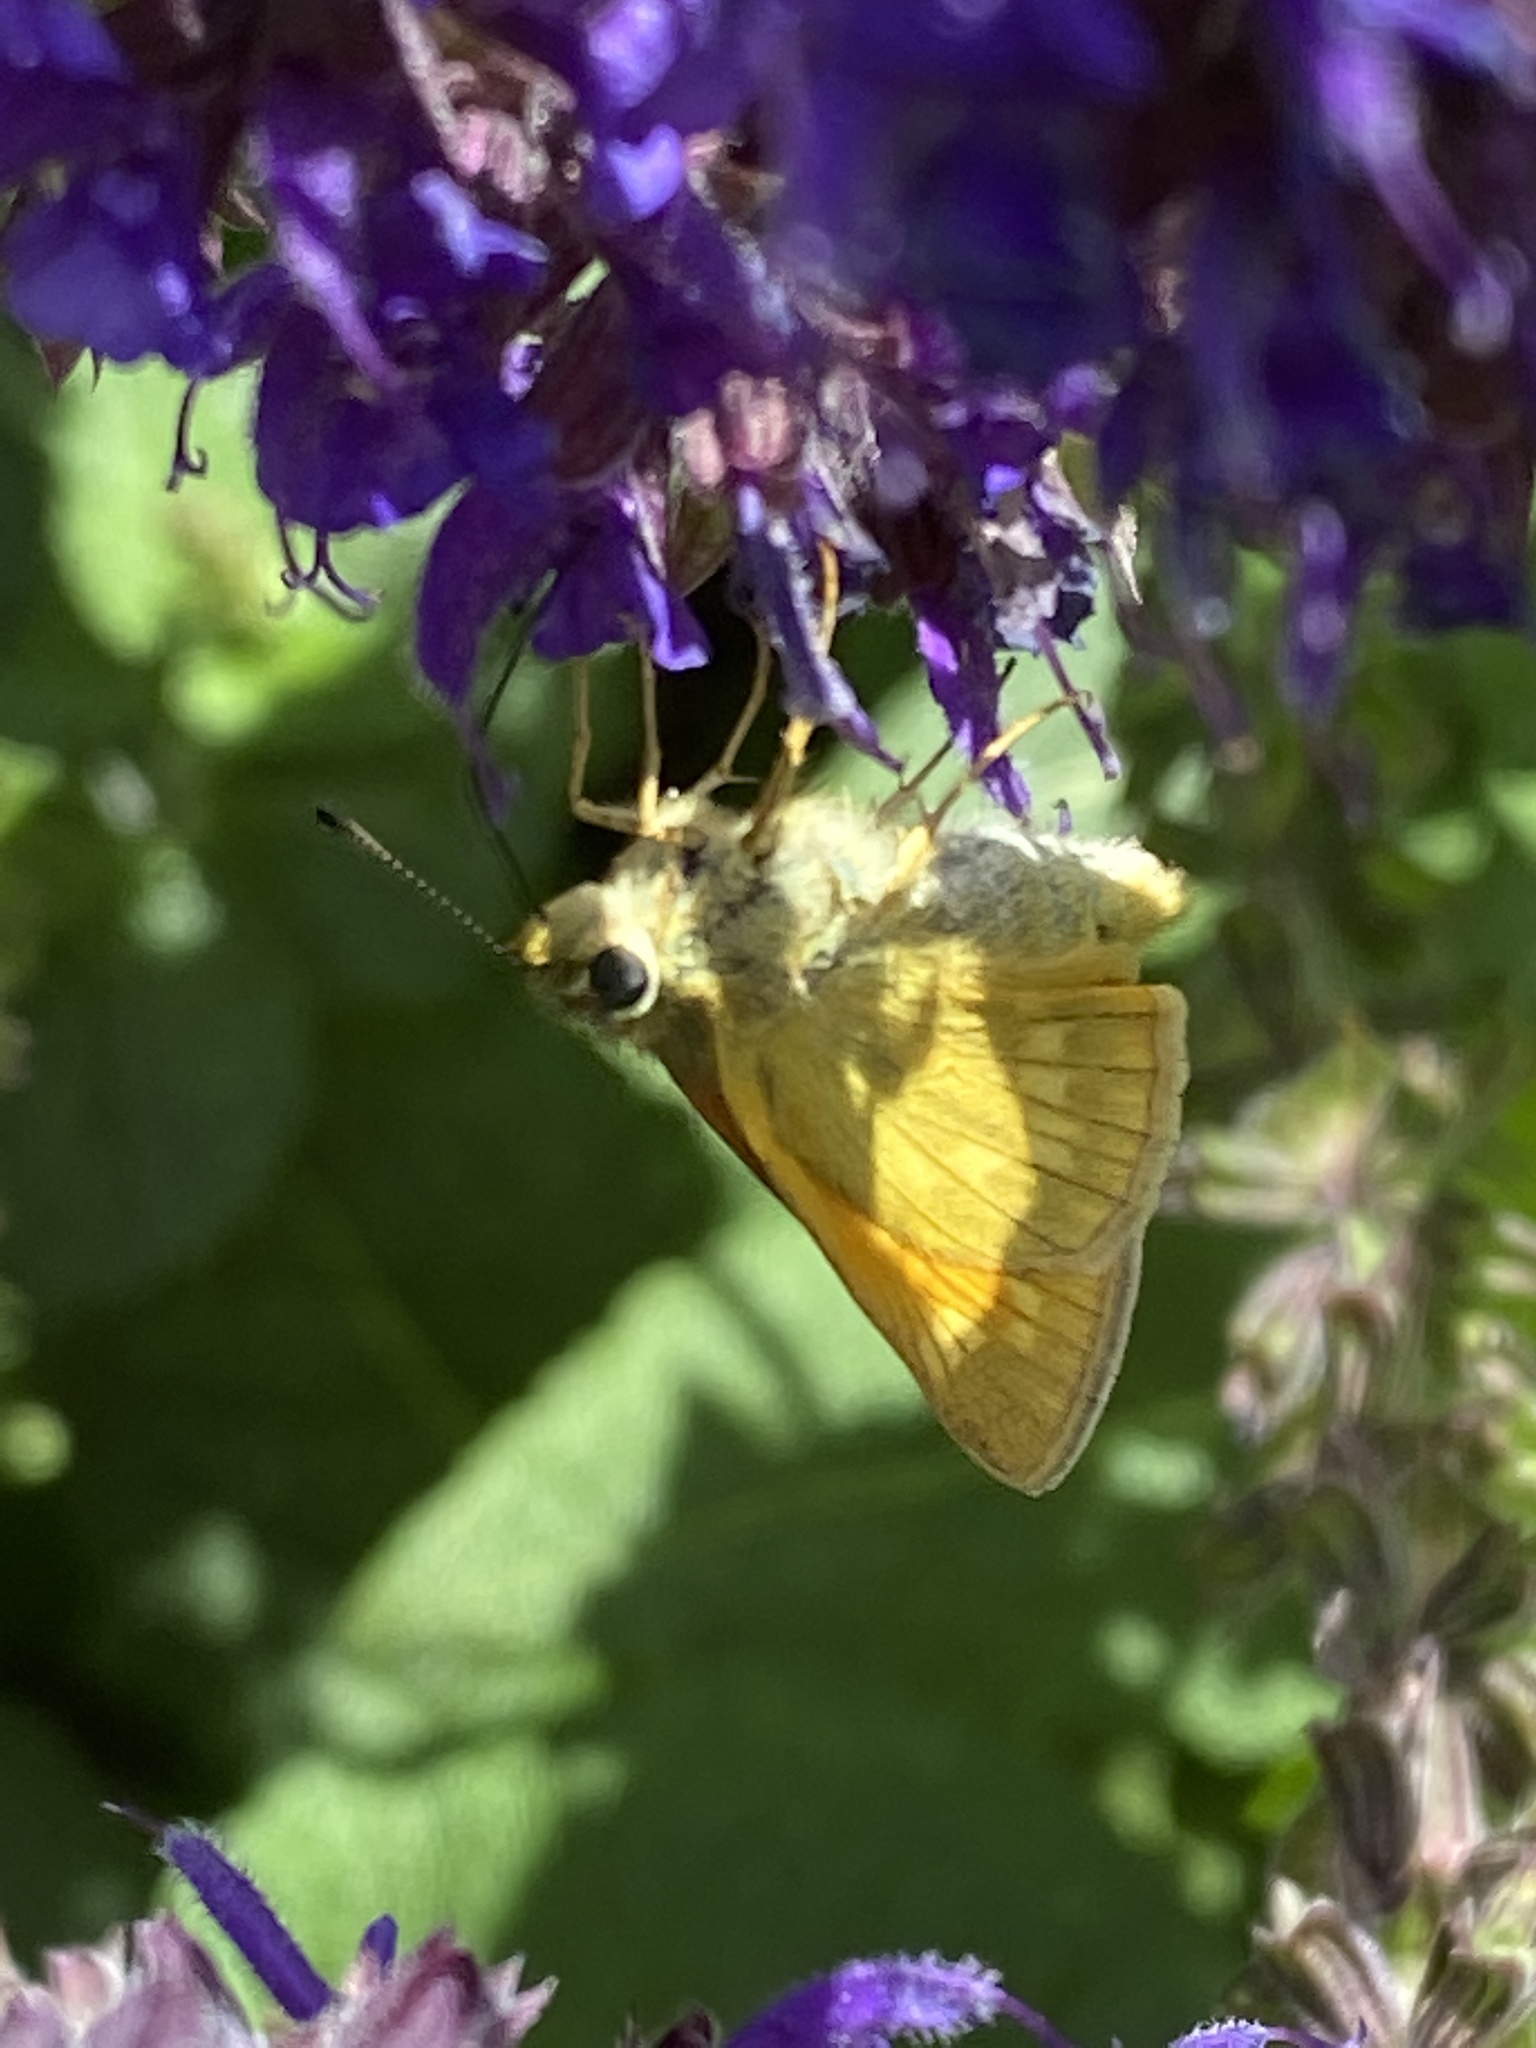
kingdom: Animalia
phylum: Arthropoda
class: Insecta
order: Lepidoptera
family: Hesperiidae
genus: Ochlodes
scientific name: Ochlodes venata
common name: Large skipper
